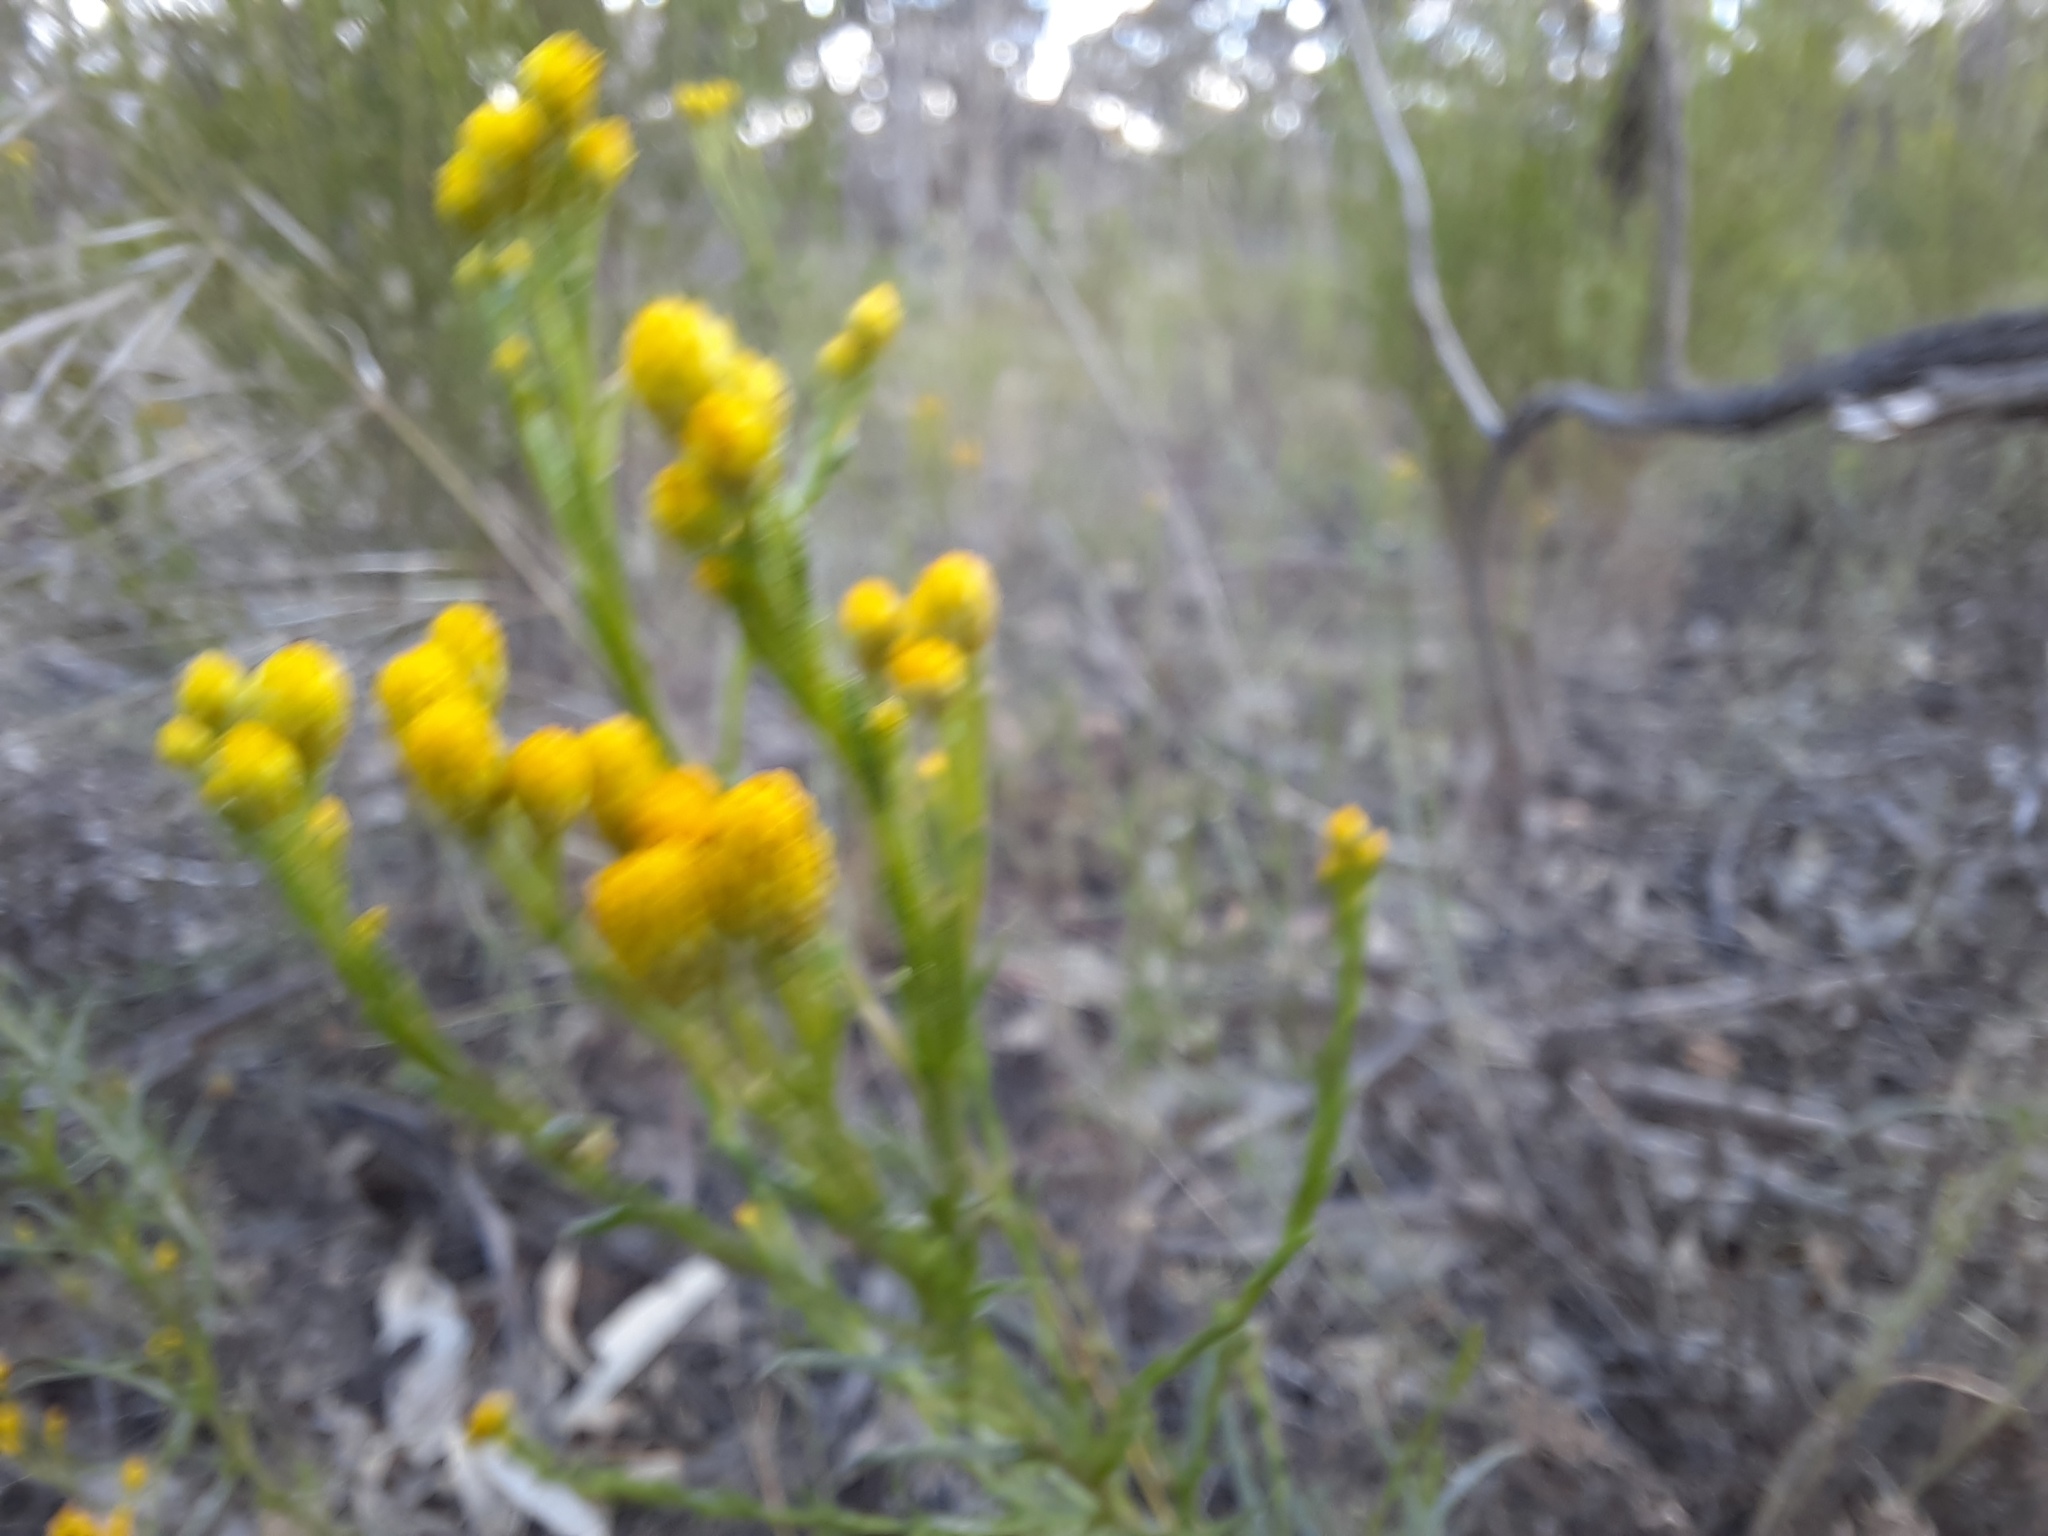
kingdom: Plantae
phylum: Tracheophyta
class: Magnoliopsida
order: Asterales
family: Asteraceae
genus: Chrysocephalum
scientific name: Chrysocephalum semipapposum
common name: Clustered everlasting
